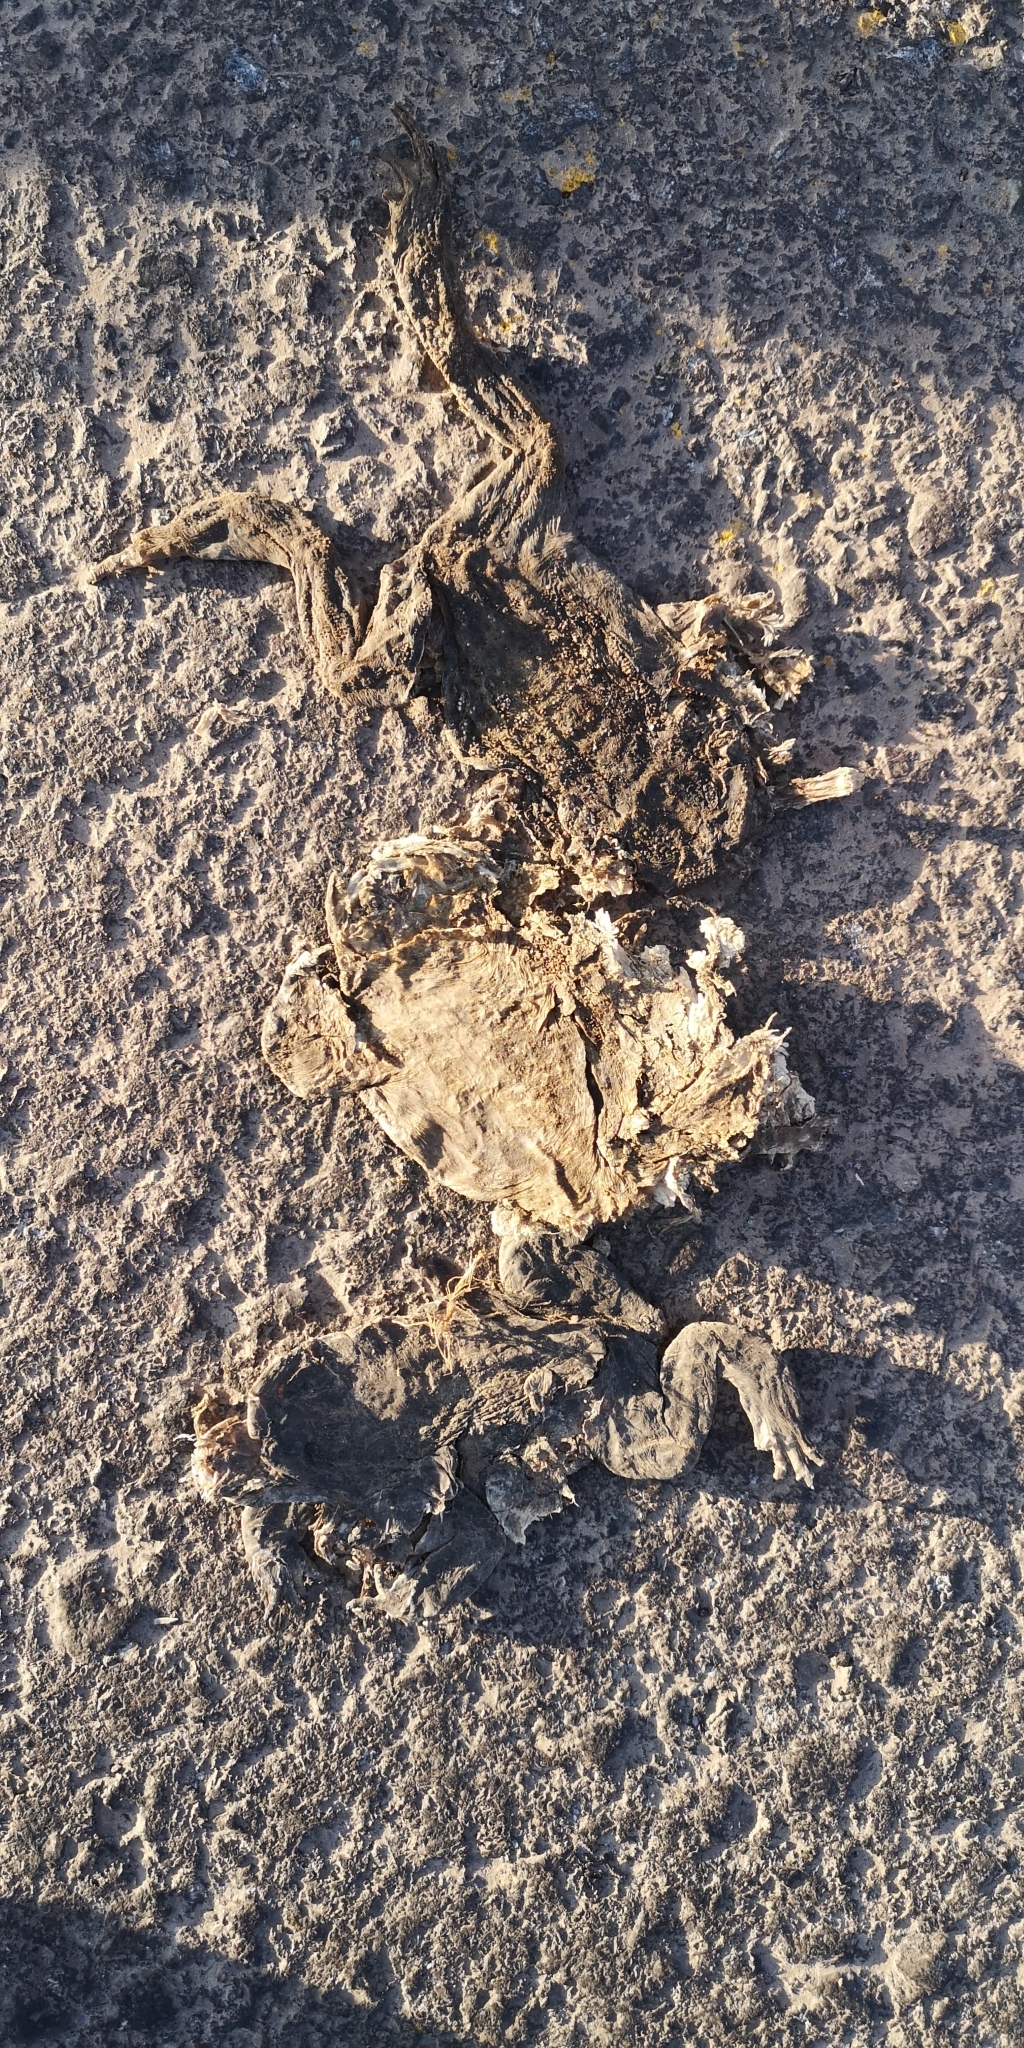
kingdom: Animalia
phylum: Chordata
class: Amphibia
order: Anura
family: Bufonidae
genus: Rhinella
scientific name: Rhinella spinulosa
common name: Warty toad
